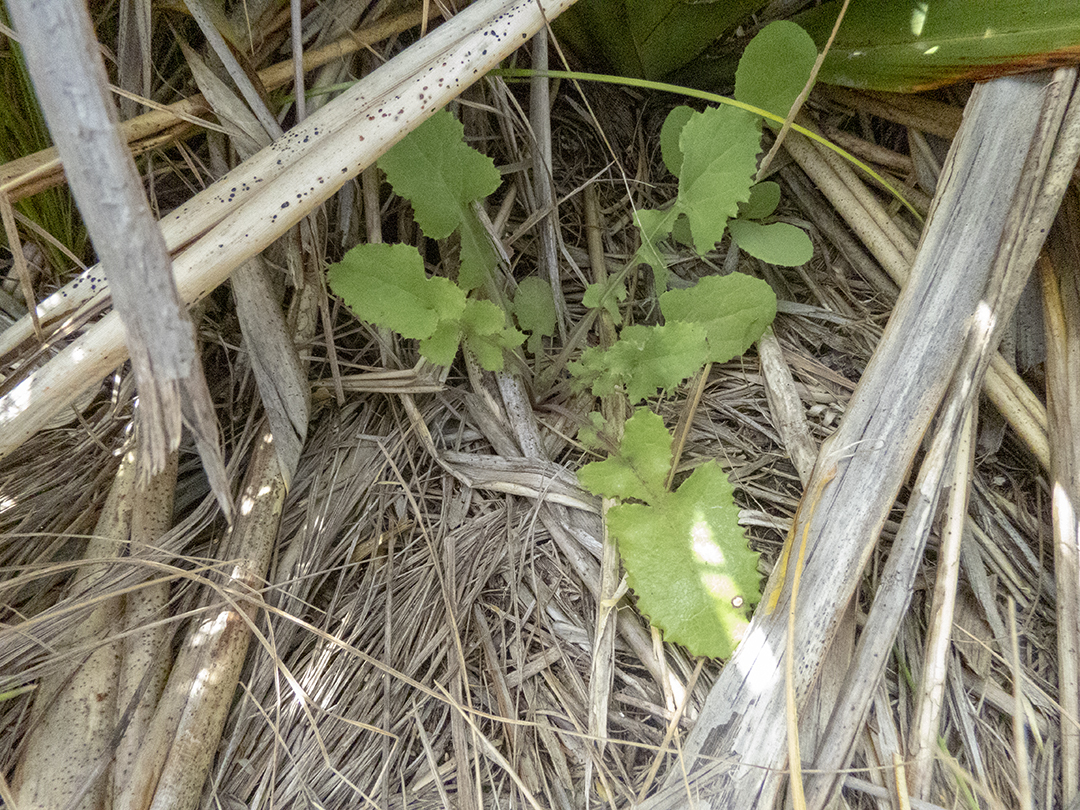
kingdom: Plantae
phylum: Tracheophyta
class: Magnoliopsida
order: Asterales
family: Asteraceae
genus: Sonchus
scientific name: Sonchus oleraceus
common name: Common sowthistle
